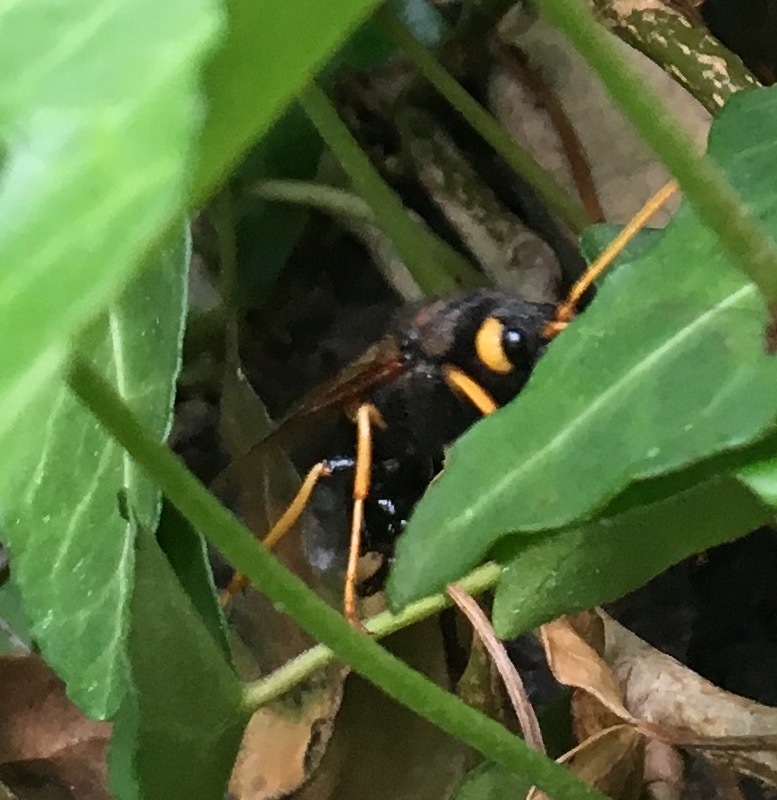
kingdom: Animalia
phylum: Arthropoda
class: Insecta
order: Hymenoptera
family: Siricidae
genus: Urocerus
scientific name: Urocerus gigas
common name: Giant woodwasp
